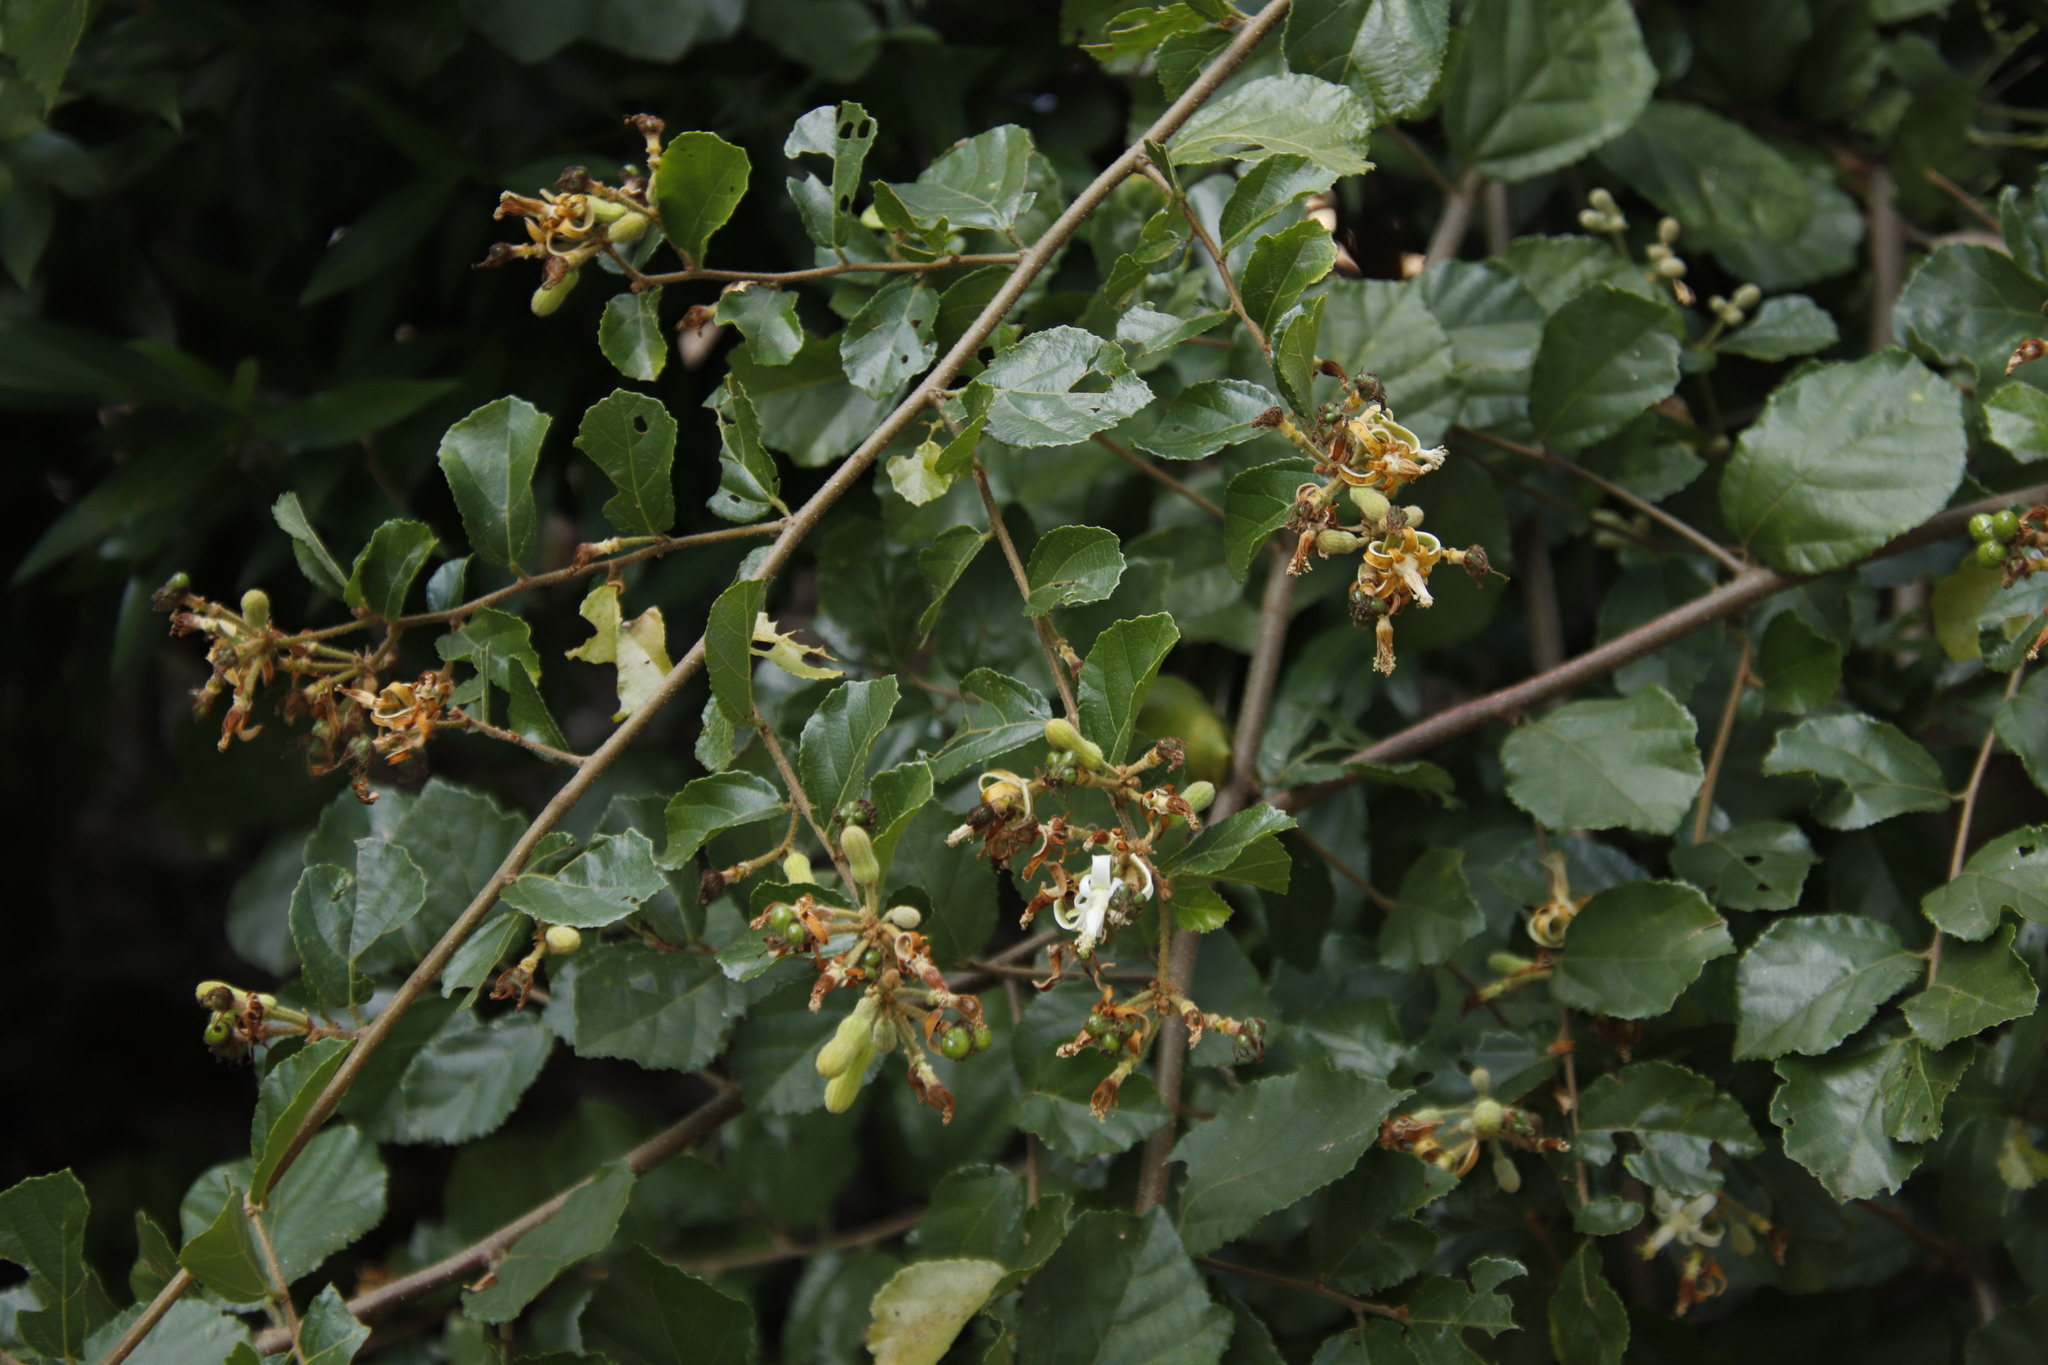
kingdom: Plantae
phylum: Tracheophyta
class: Magnoliopsida
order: Malvales
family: Malvaceae
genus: Grewia
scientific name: Grewia sulcata
